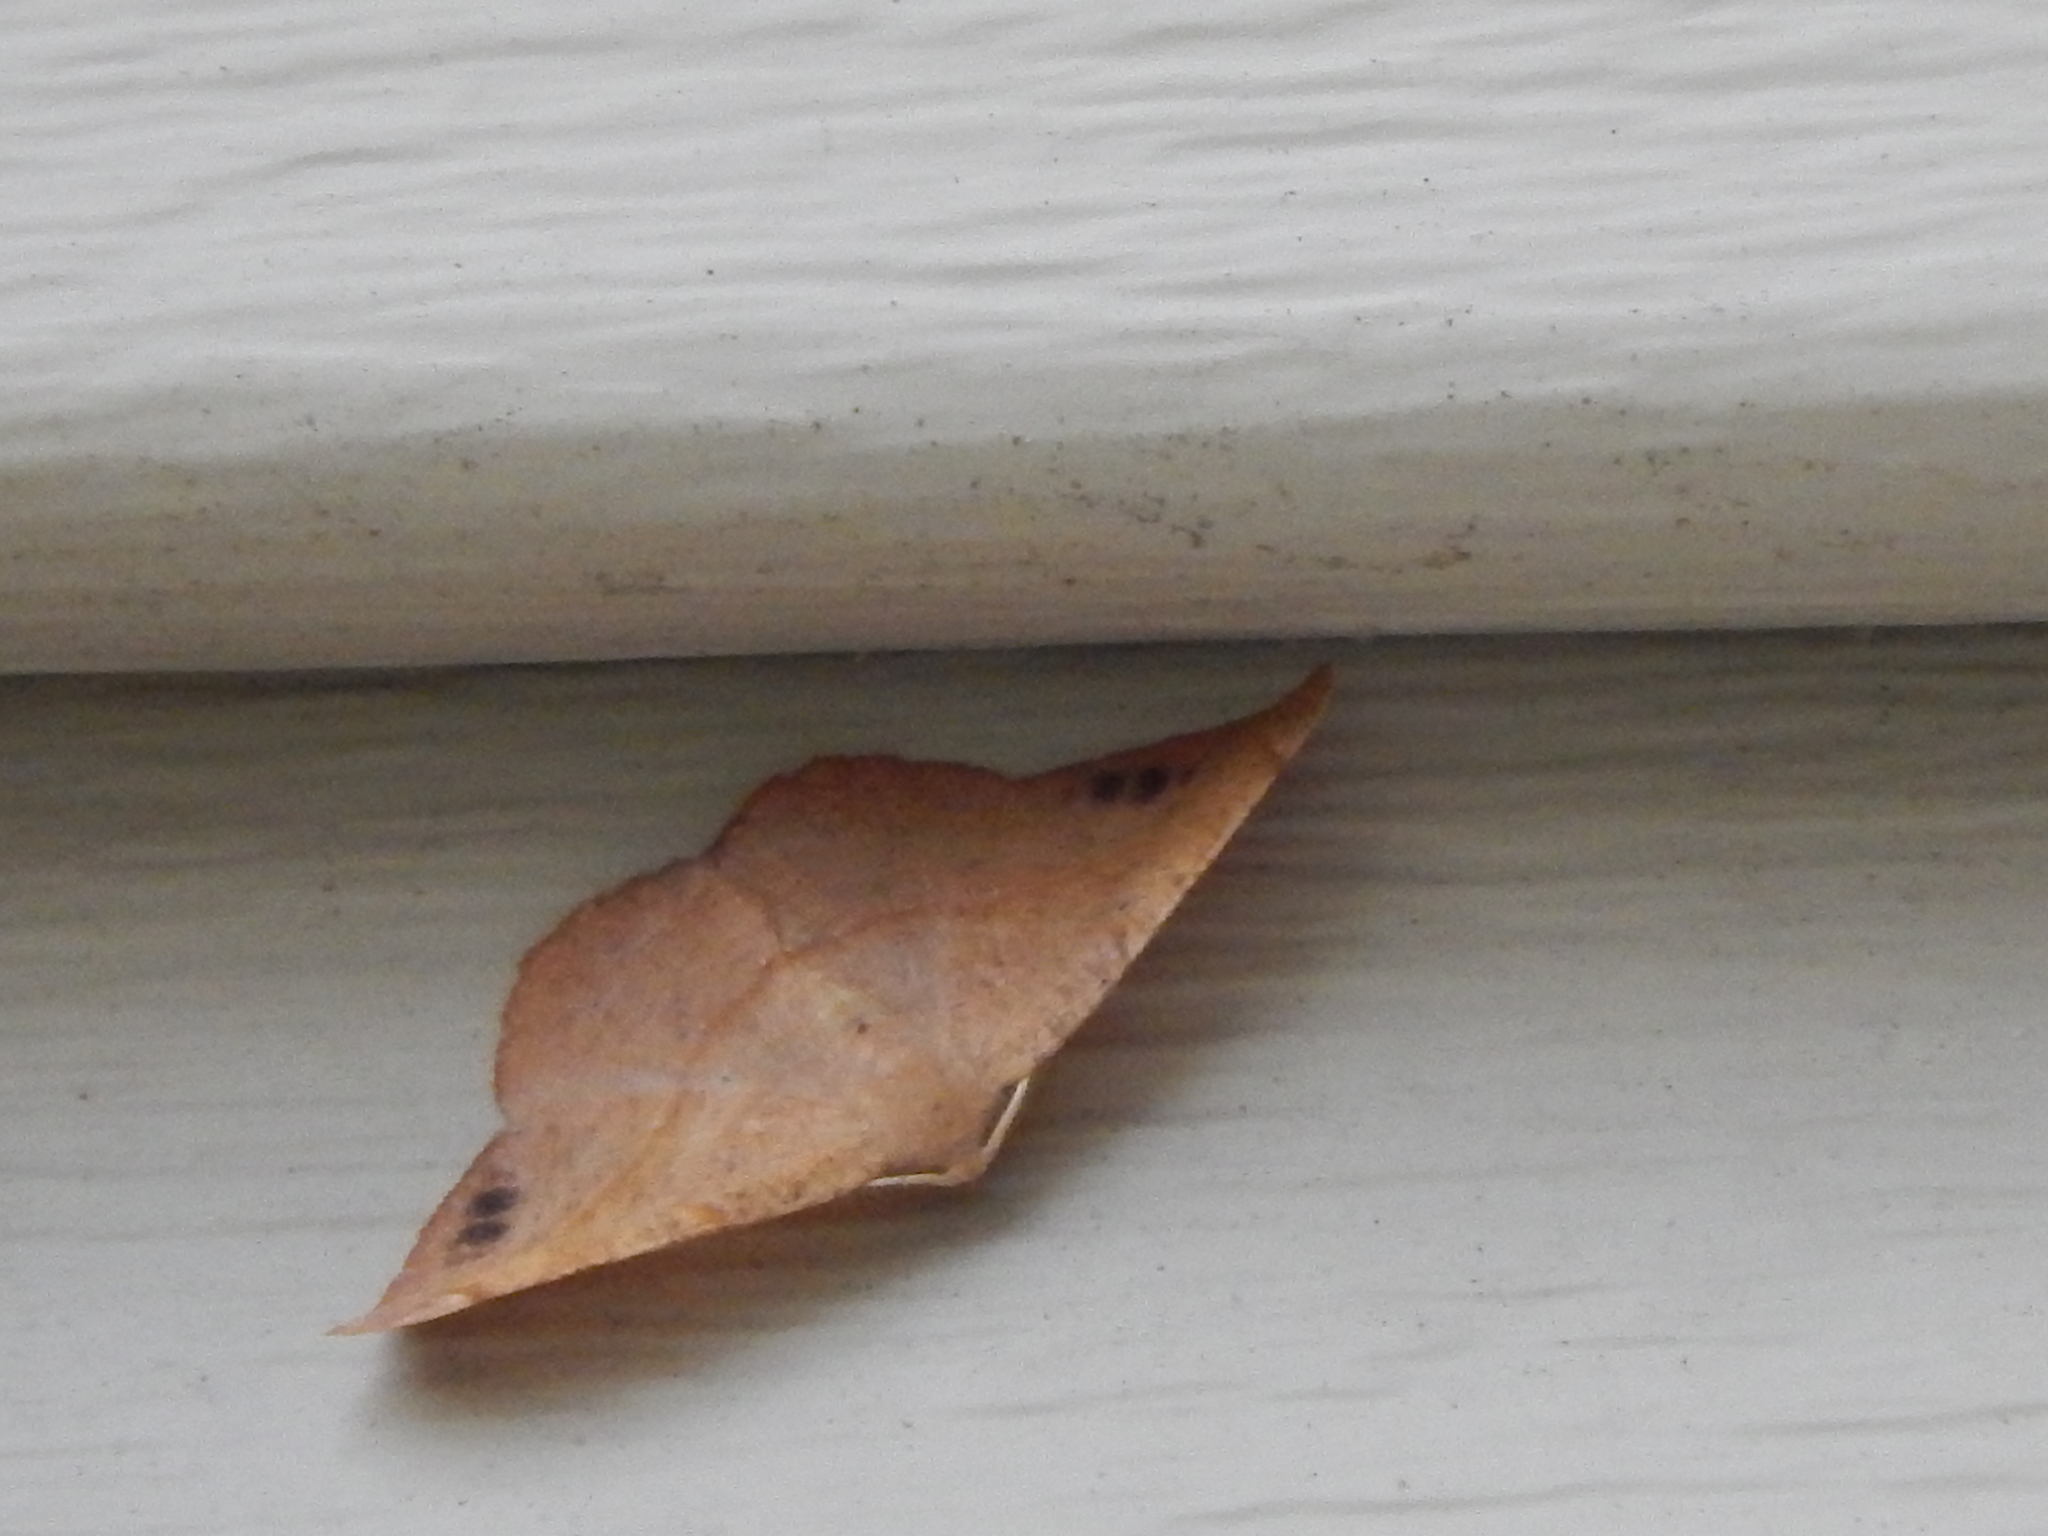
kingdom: Animalia
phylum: Arthropoda
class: Insecta
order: Lepidoptera
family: Geometridae
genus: Patalene
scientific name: Patalene olyzonaria
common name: Juniper geometer moth
